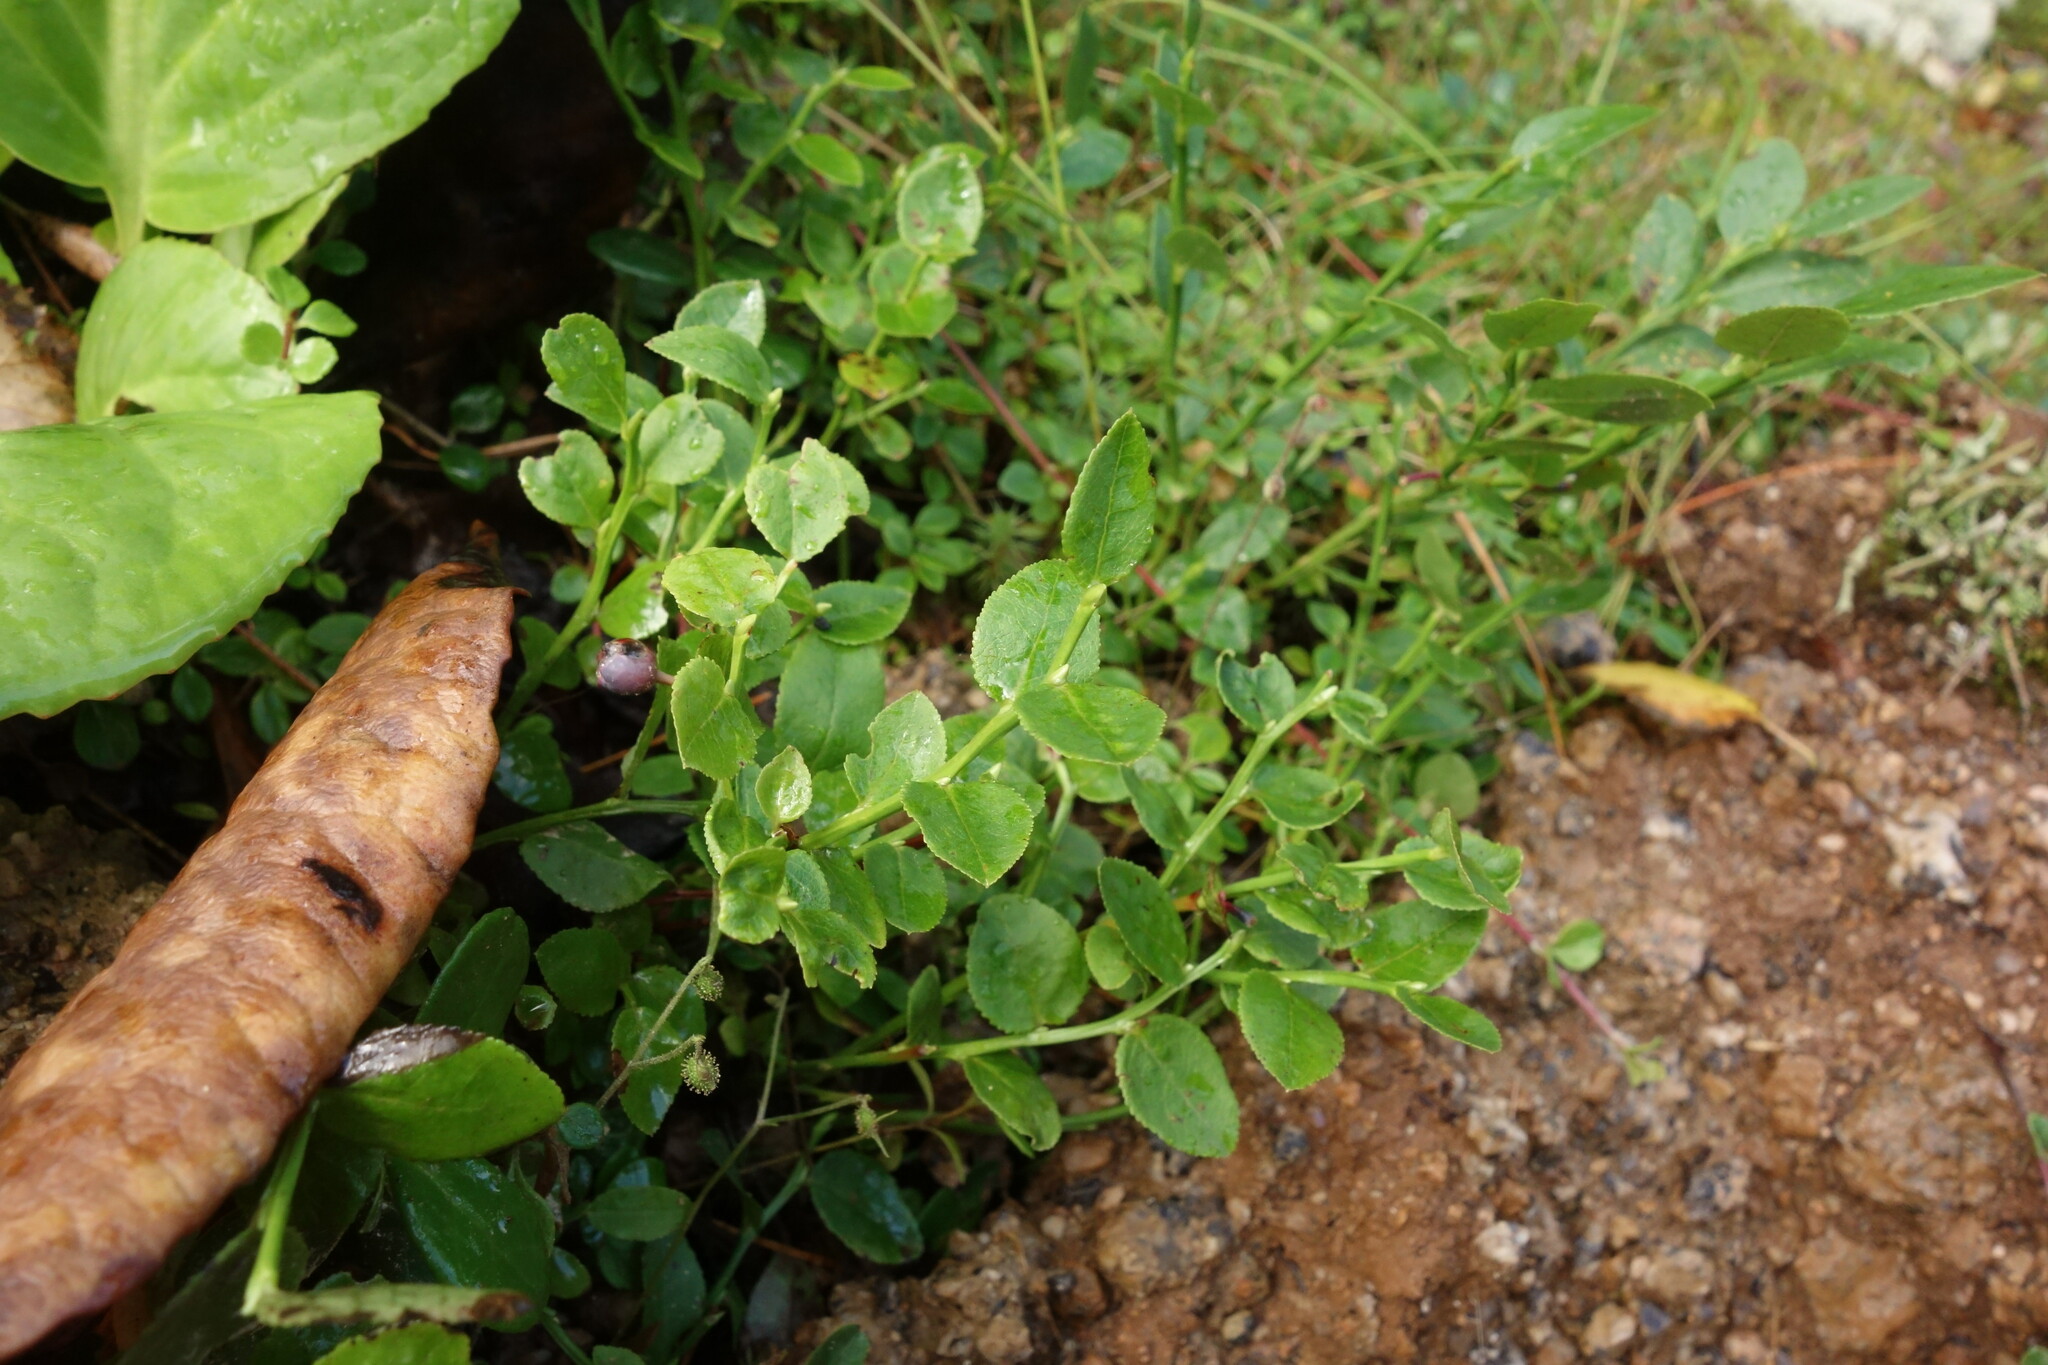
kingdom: Plantae
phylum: Tracheophyta
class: Magnoliopsida
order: Ericales
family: Ericaceae
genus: Vaccinium
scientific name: Vaccinium myrtillus
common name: Bilberry
